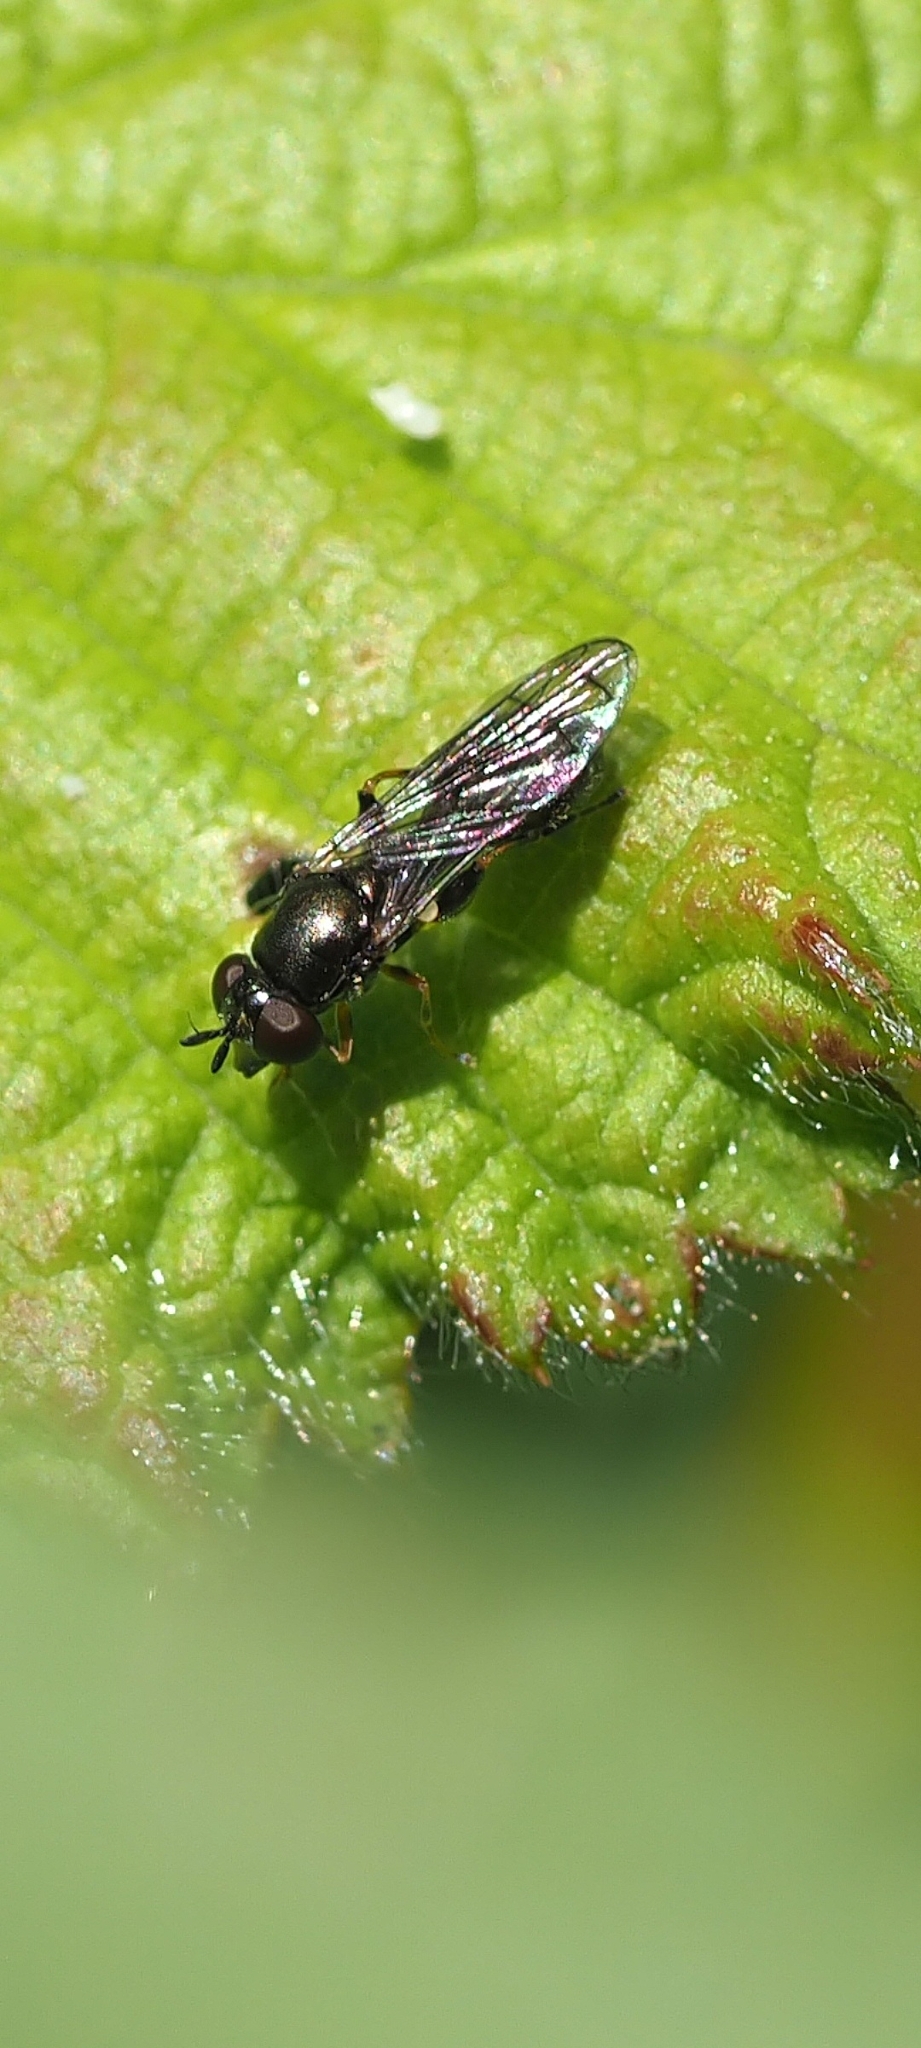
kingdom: Animalia
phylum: Arthropoda
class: Insecta
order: Diptera
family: Syrphidae
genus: Neoascia
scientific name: Neoascia
